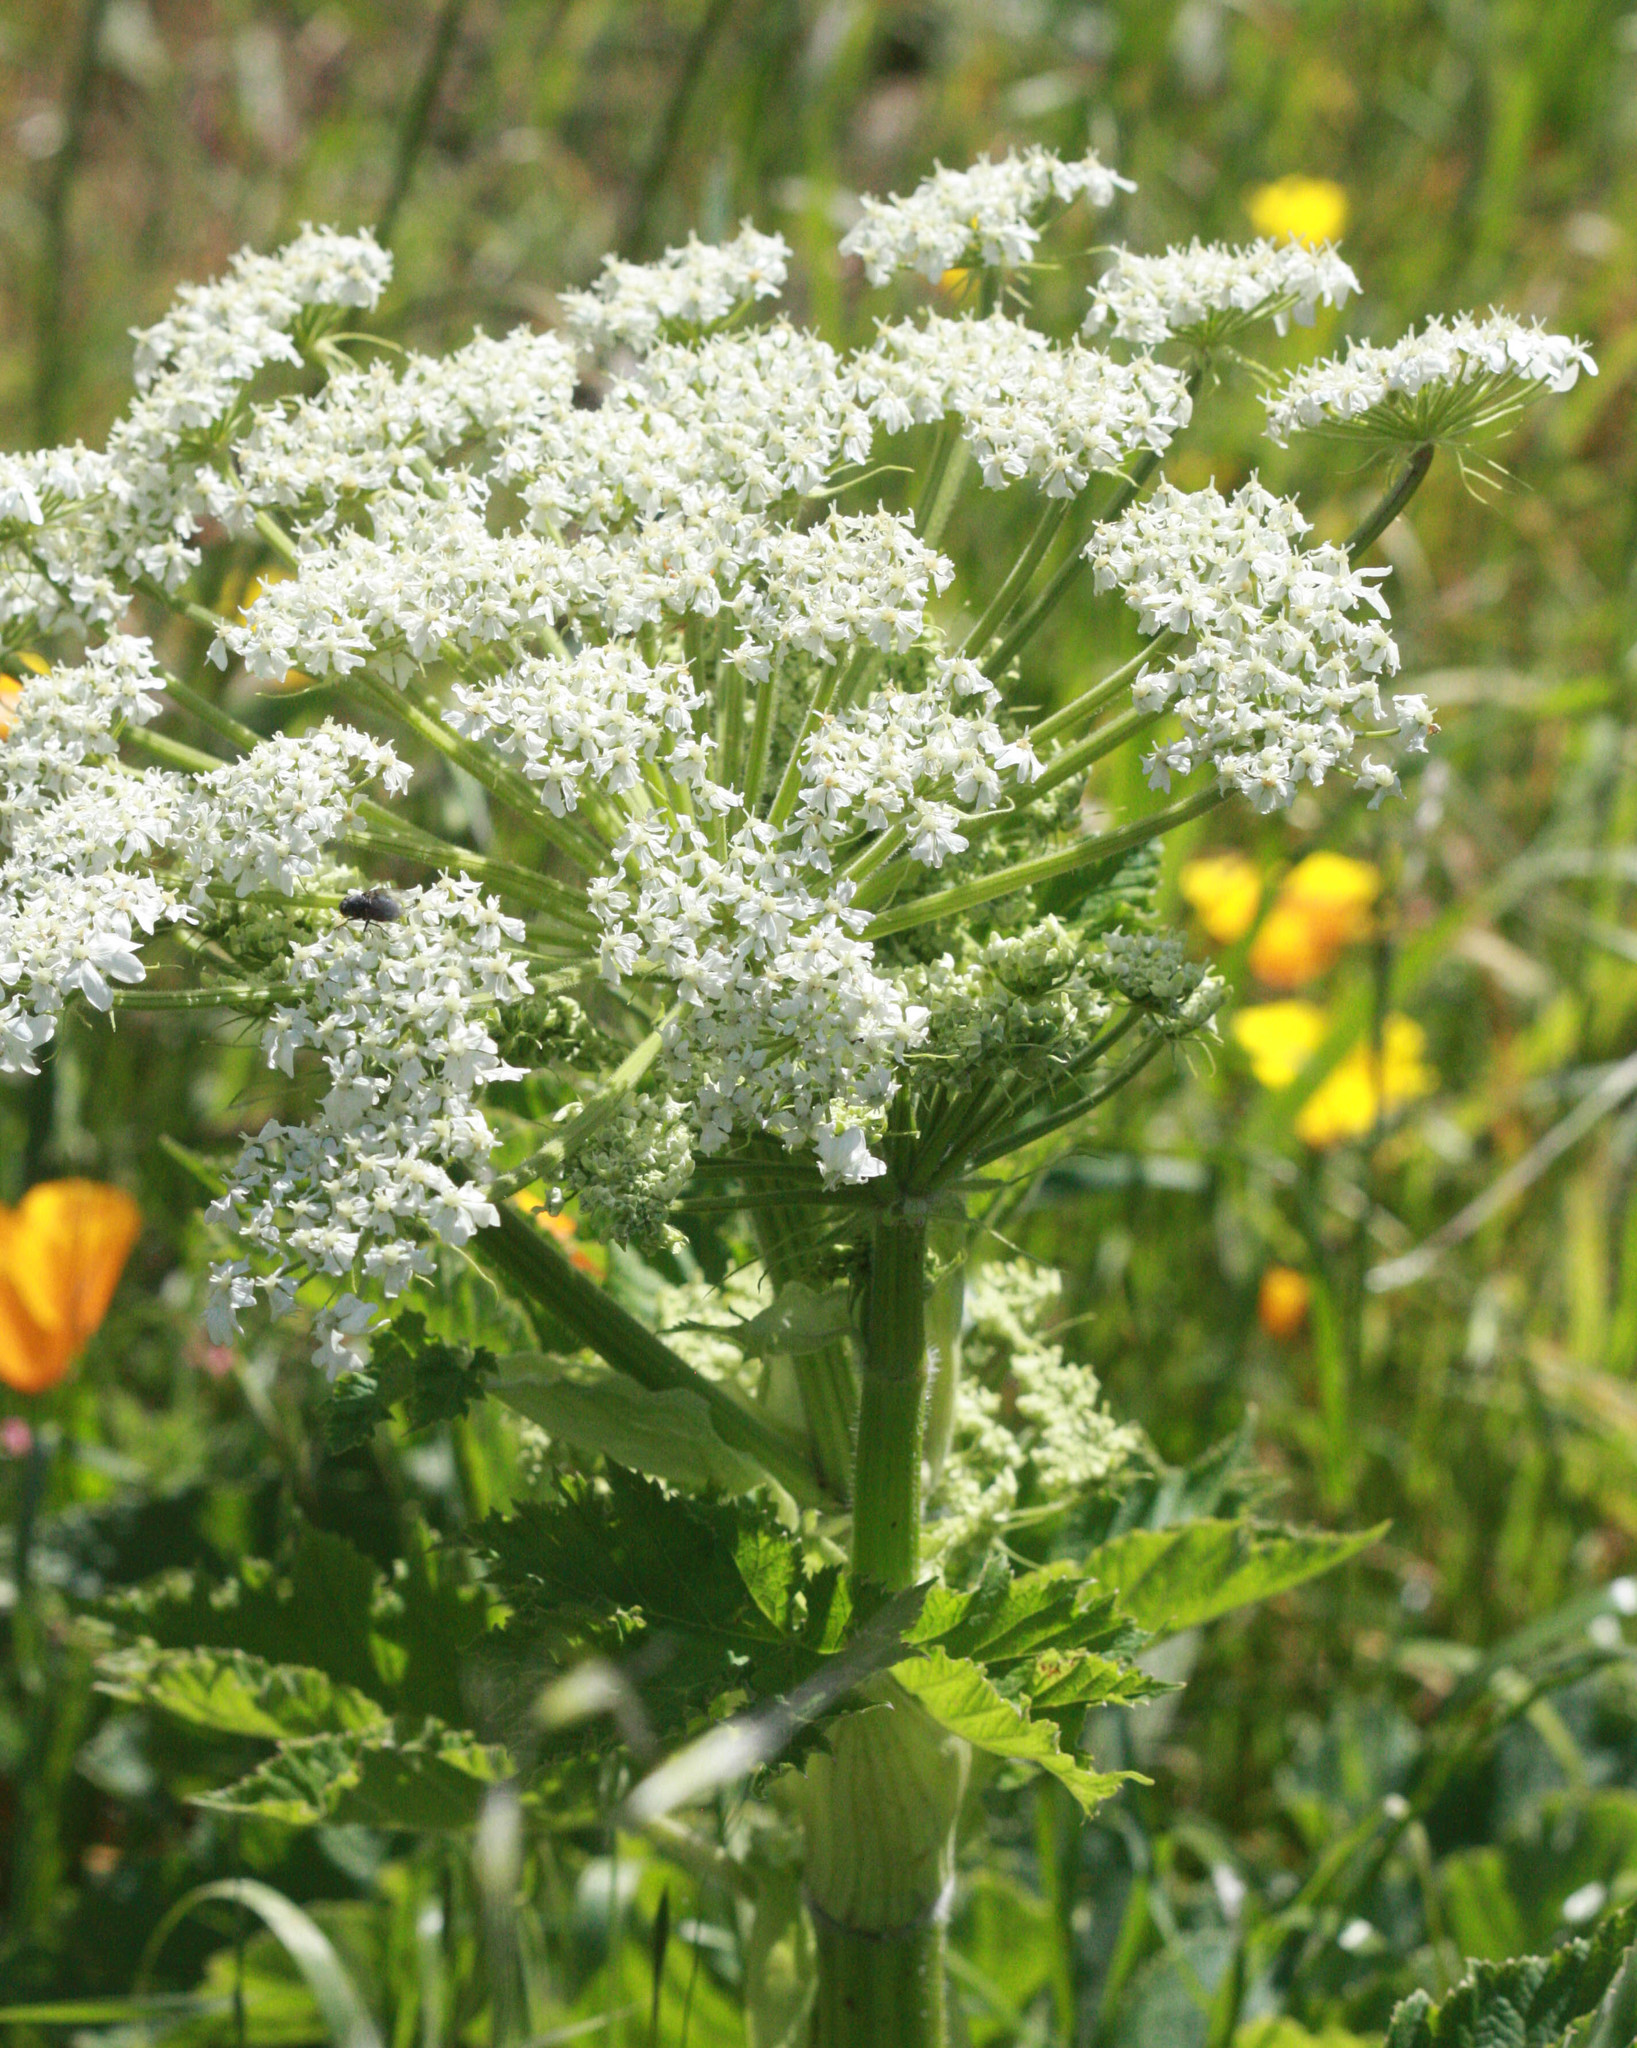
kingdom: Plantae
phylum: Tracheophyta
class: Magnoliopsida
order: Apiales
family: Apiaceae
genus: Heracleum
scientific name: Heracleum maximum
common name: American cow parsnip
